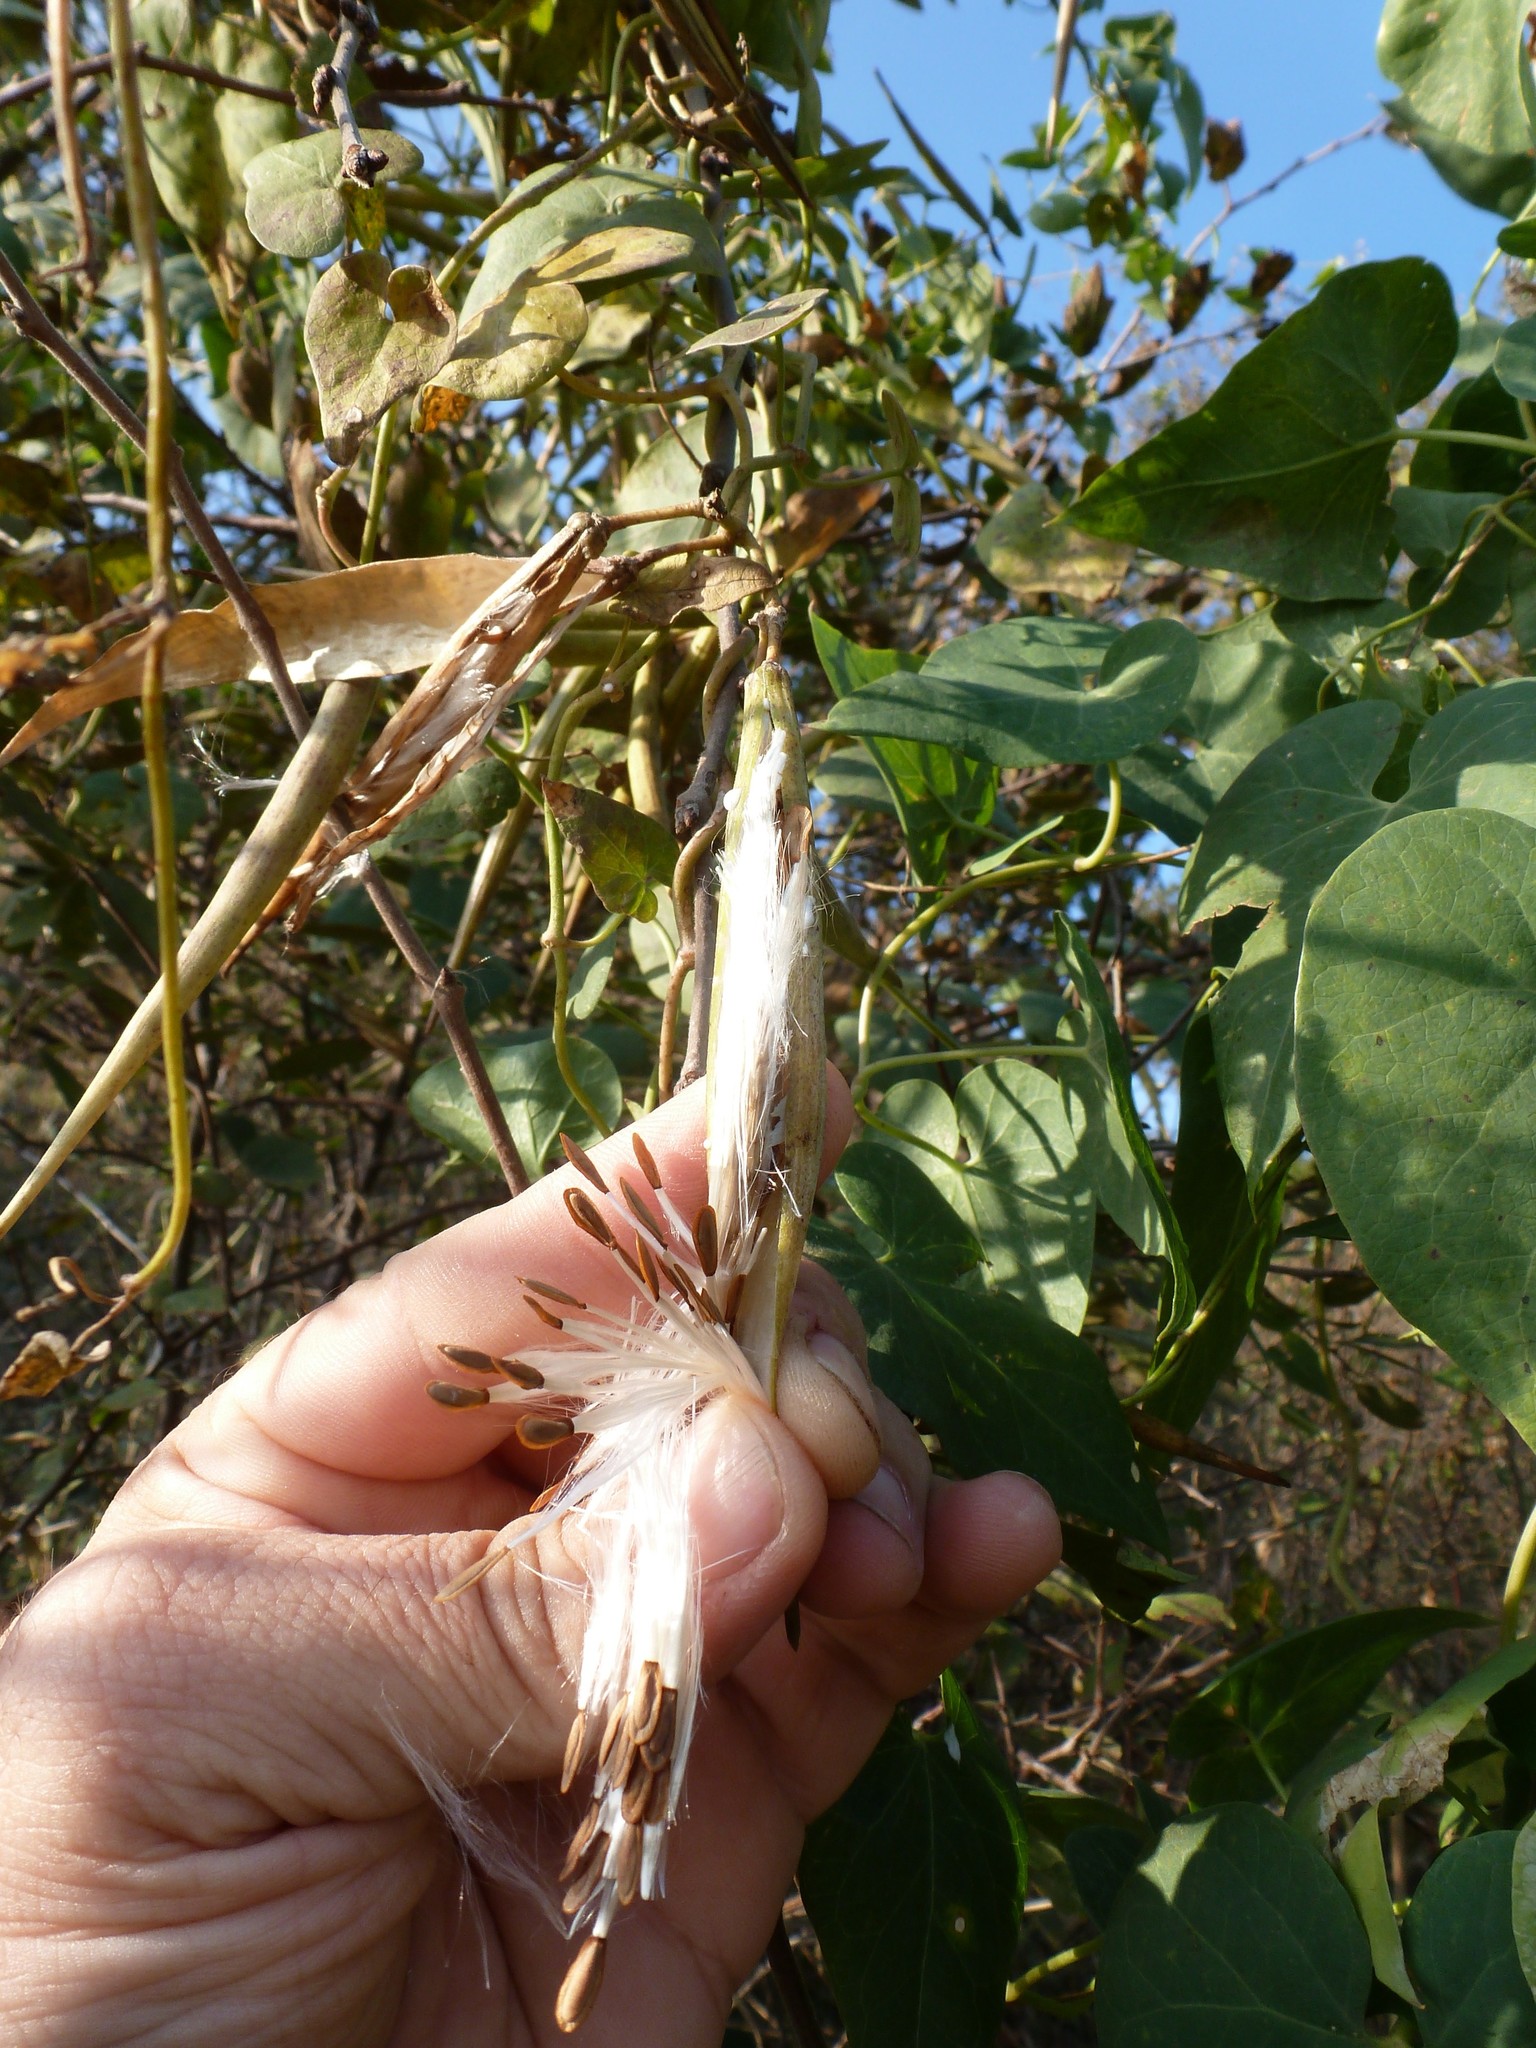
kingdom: Plantae
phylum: Tracheophyta
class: Magnoliopsida
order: Gentianales
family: Apocynaceae
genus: Cynanchum
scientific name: Cynanchum acutum
